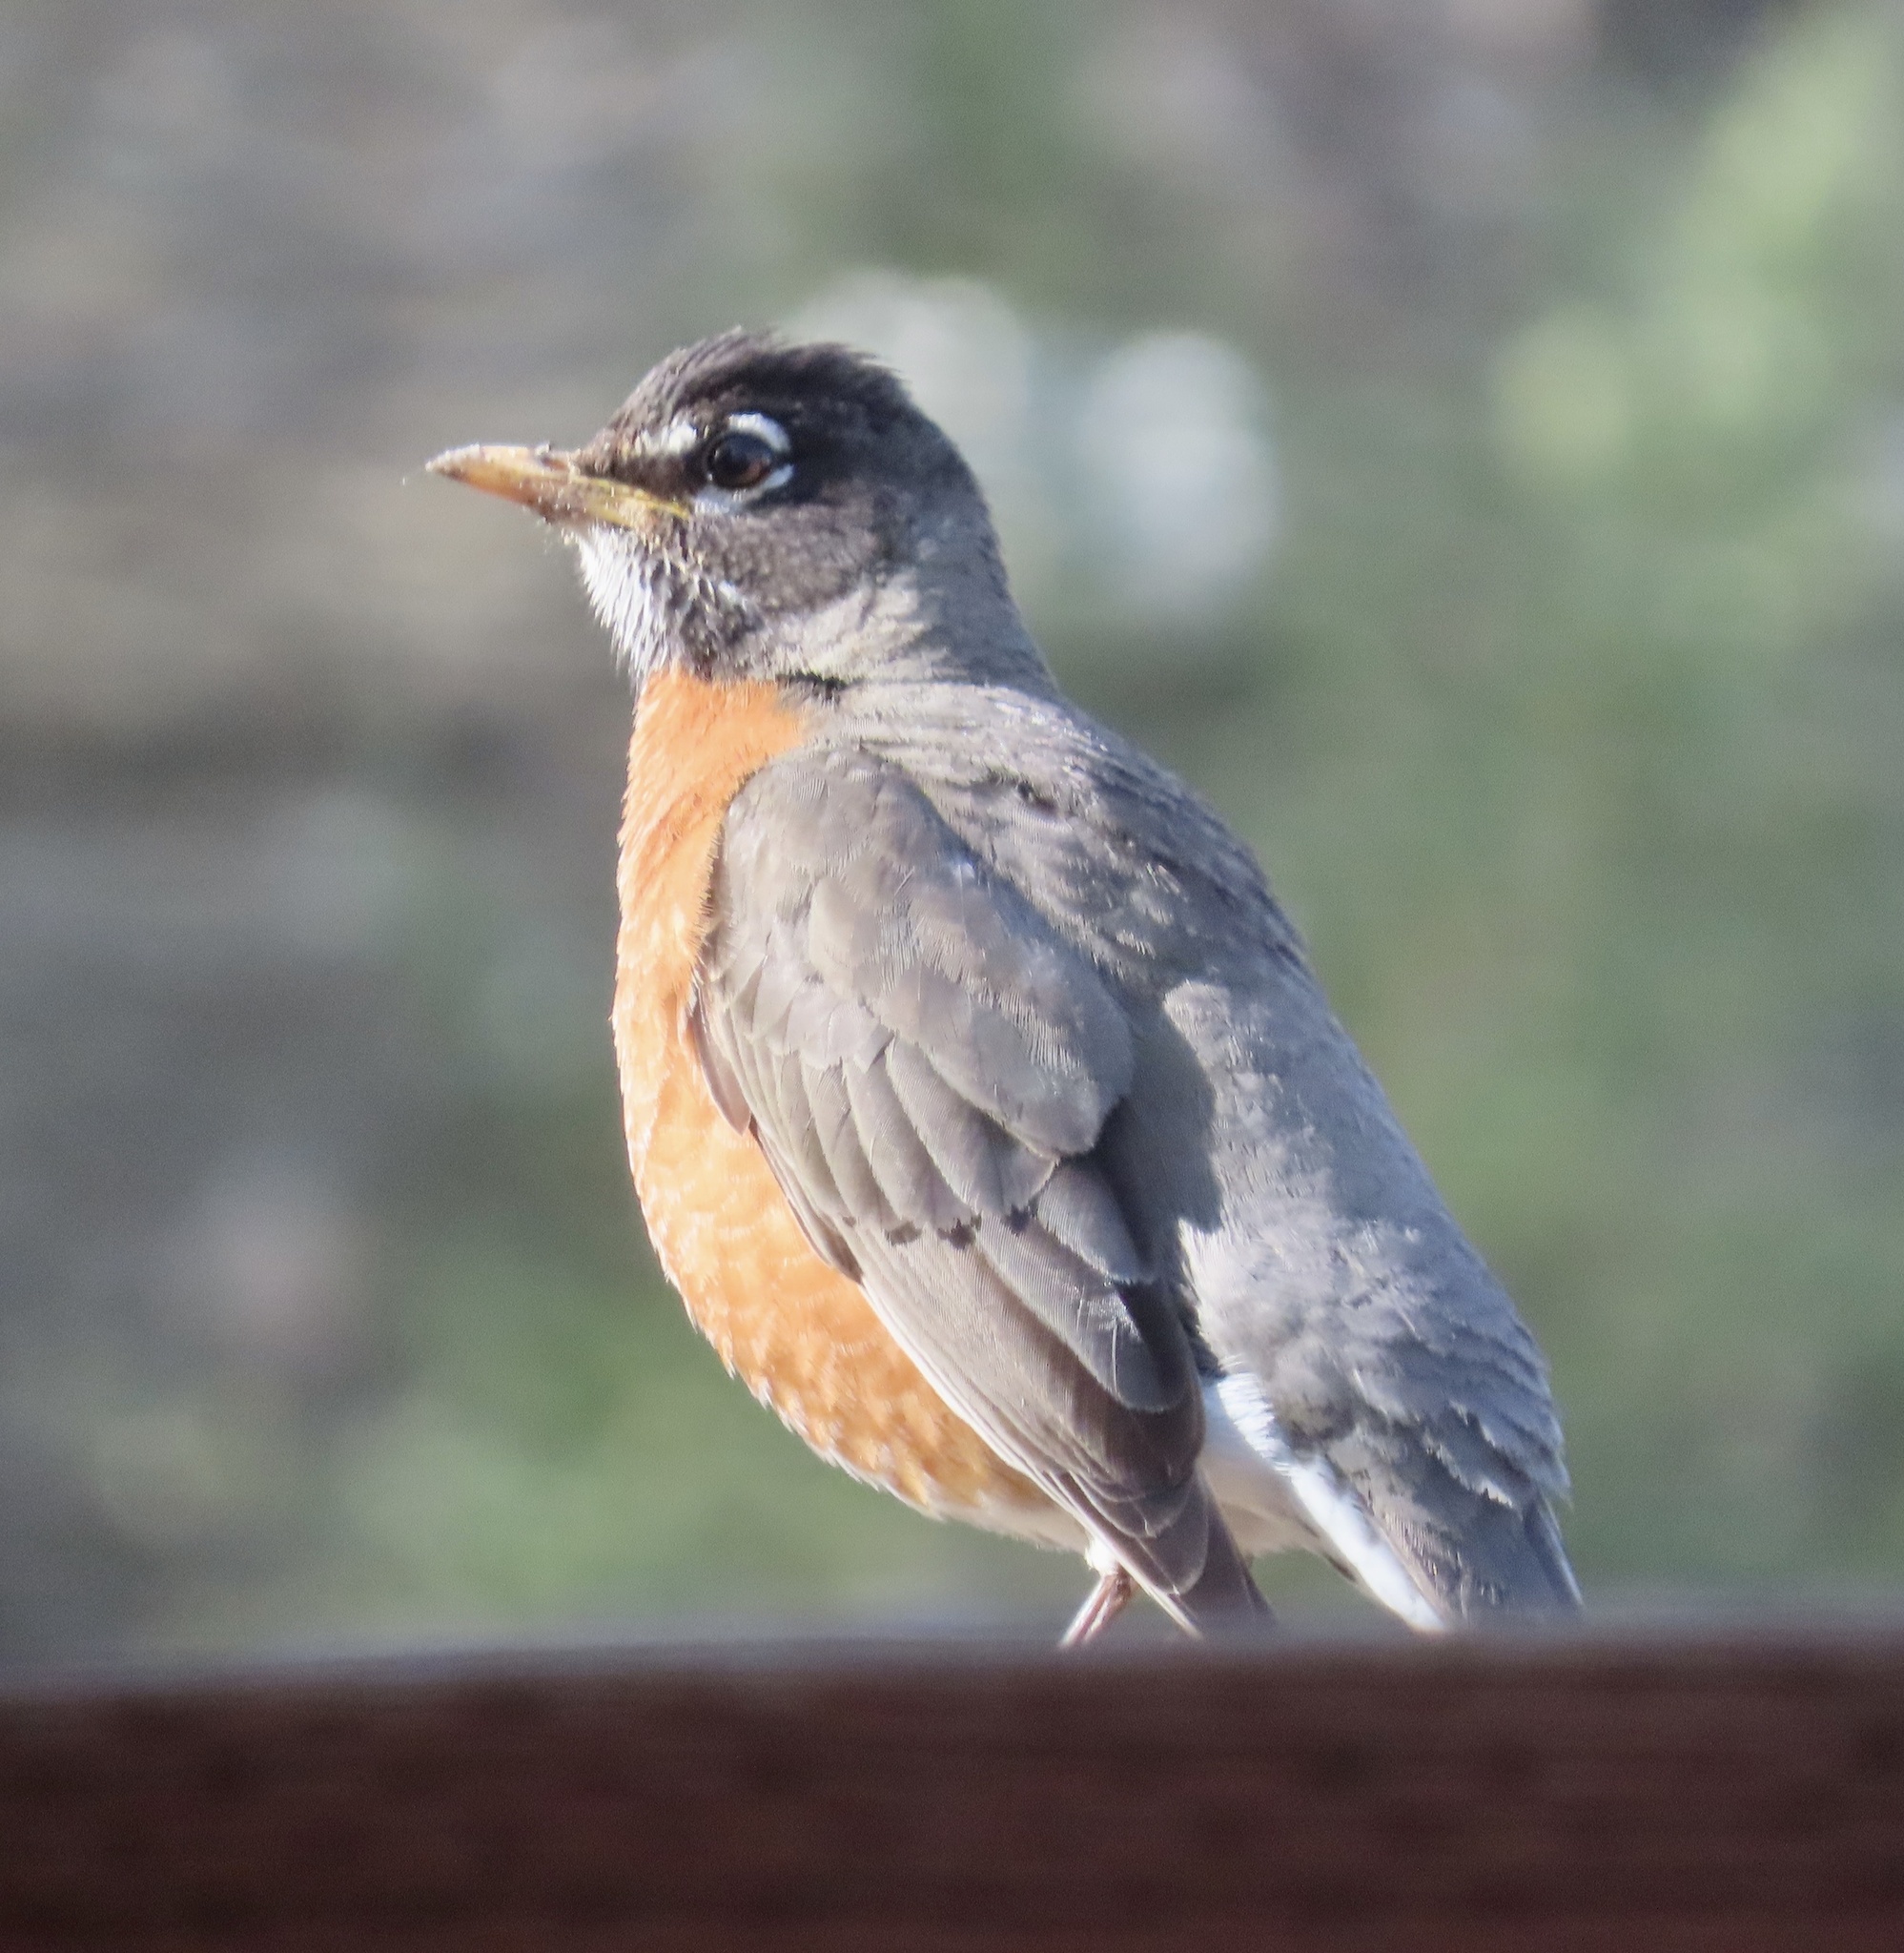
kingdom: Animalia
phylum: Chordata
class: Aves
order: Passeriformes
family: Turdidae
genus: Turdus
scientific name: Turdus migratorius
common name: American robin
